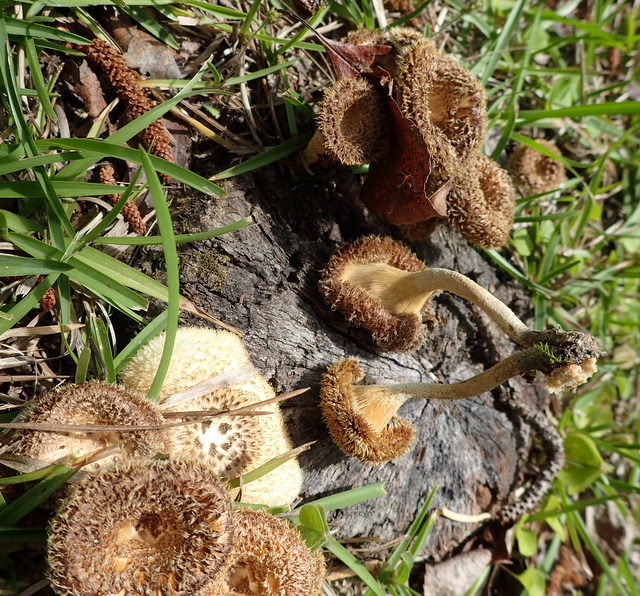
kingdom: Fungi
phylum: Basidiomycota
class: Agaricomycetes
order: Polyporales
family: Polyporaceae
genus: Lentinus
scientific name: Lentinus crinitus
